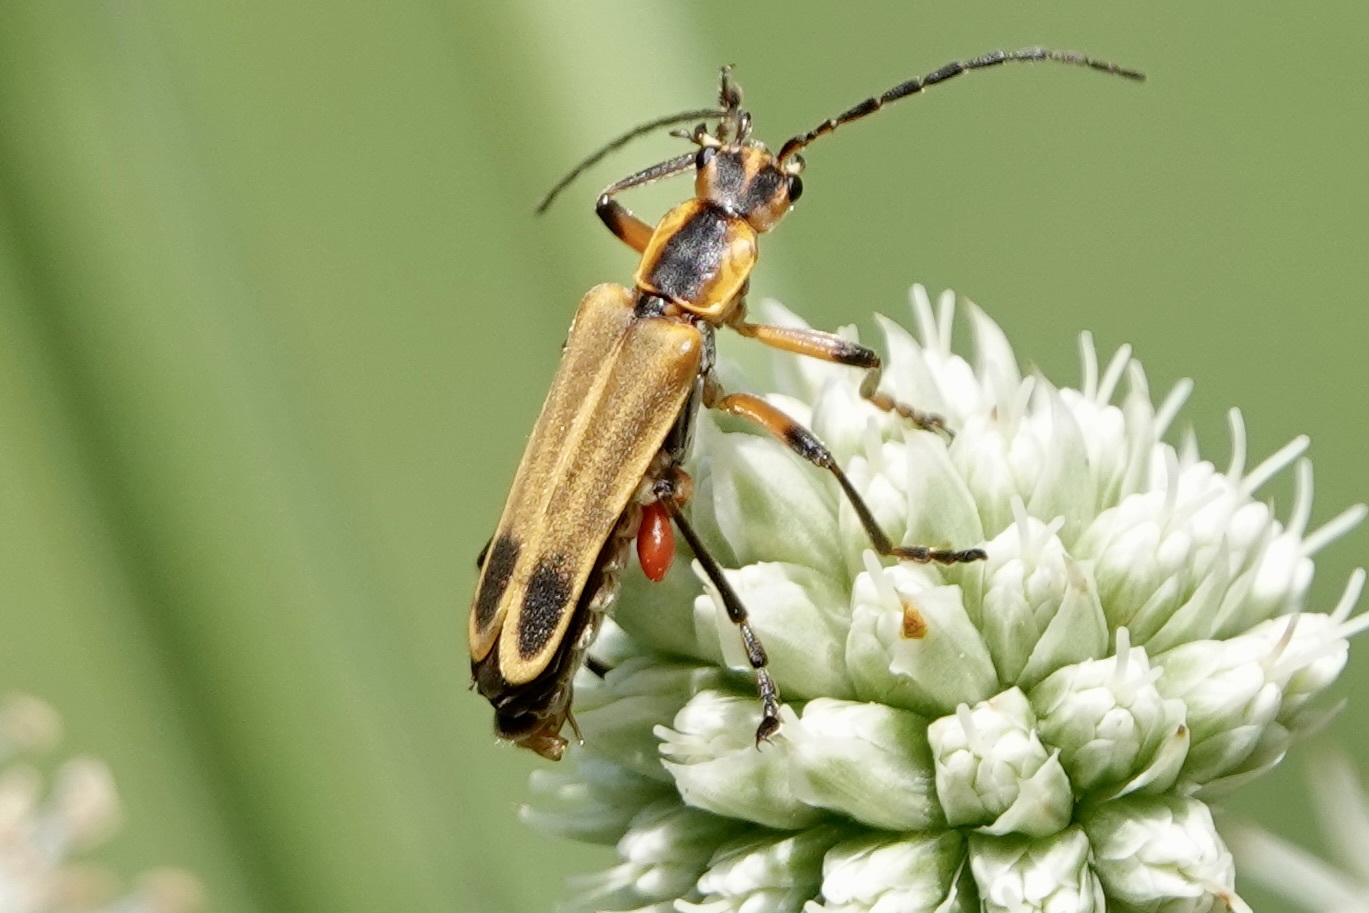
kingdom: Animalia
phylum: Arthropoda
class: Insecta
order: Coleoptera
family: Cantharidae
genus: Chauliognathus
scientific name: Chauliognathus marginatus
